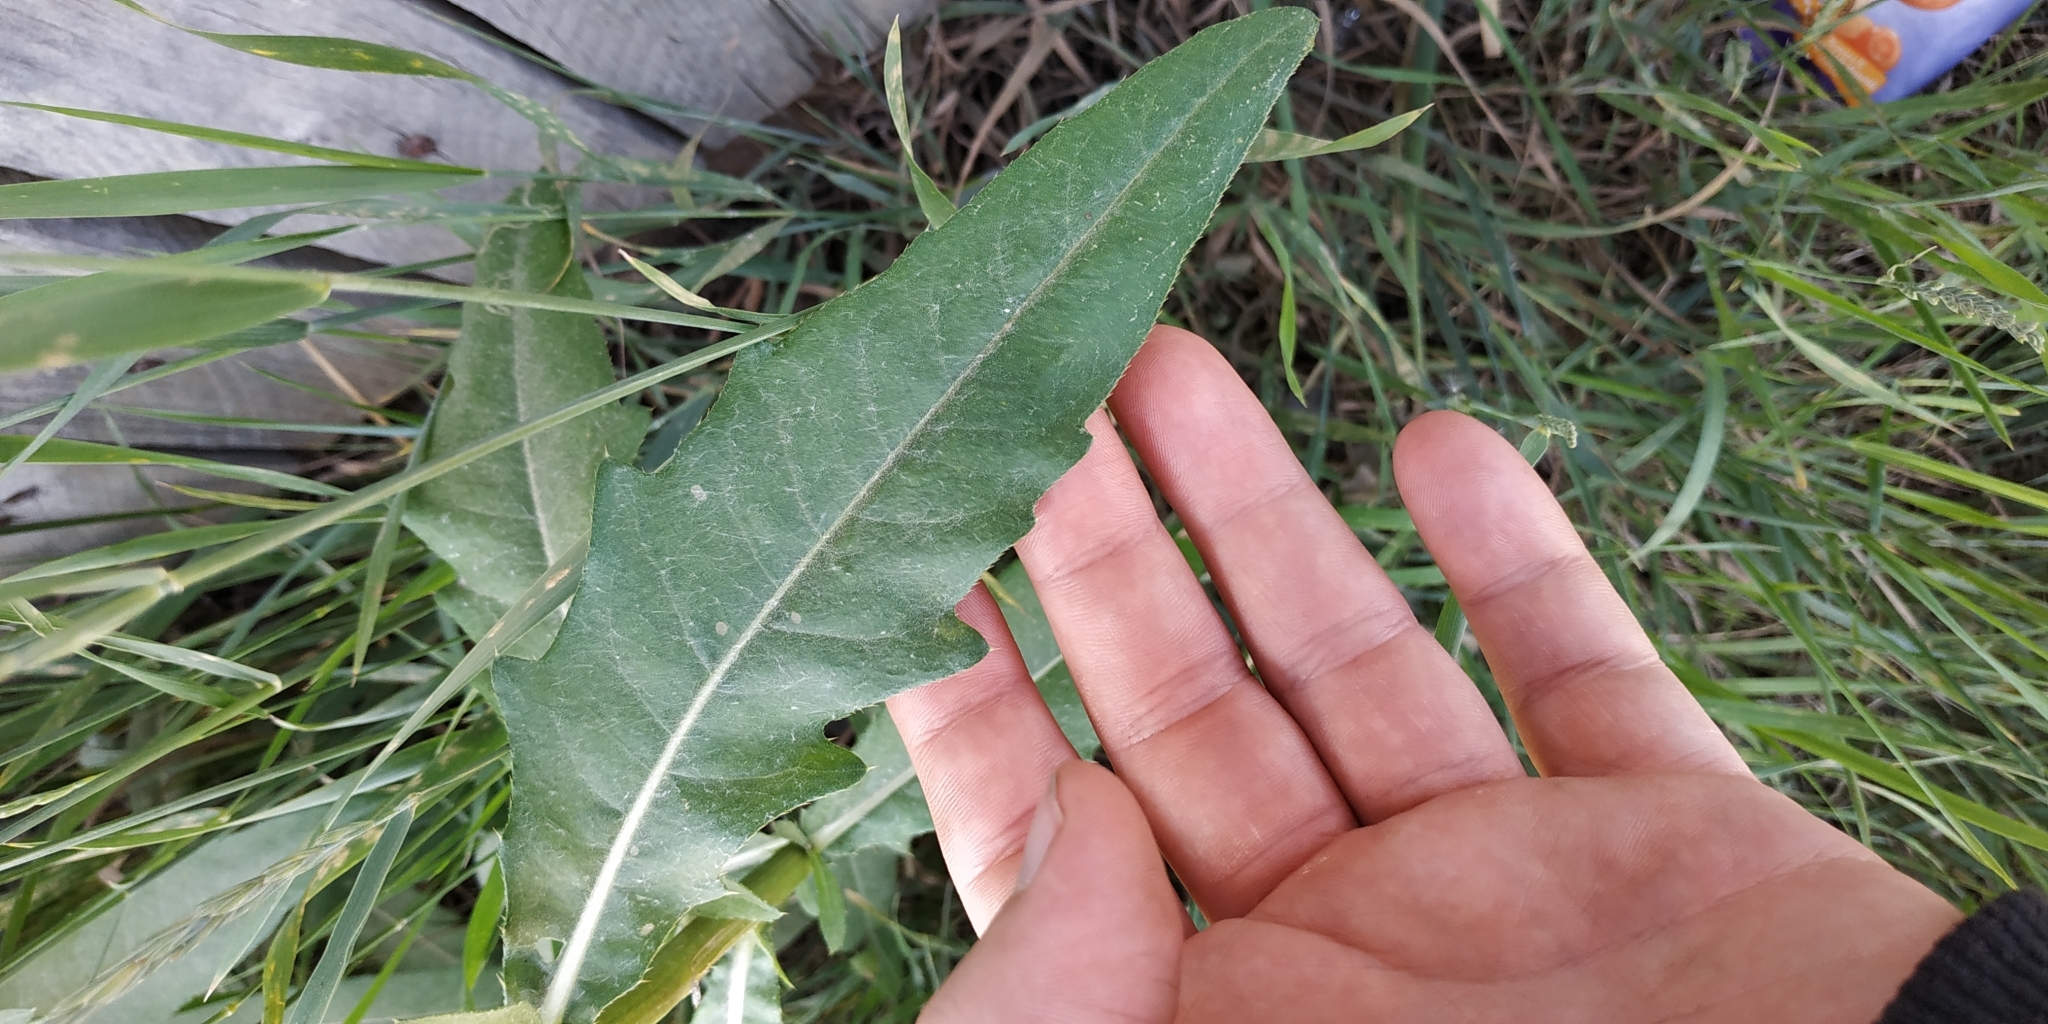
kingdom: Plantae
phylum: Tracheophyta
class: Magnoliopsida
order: Asterales
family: Asteraceae
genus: Cirsium
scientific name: Cirsium arvense
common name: Creeping thistle
